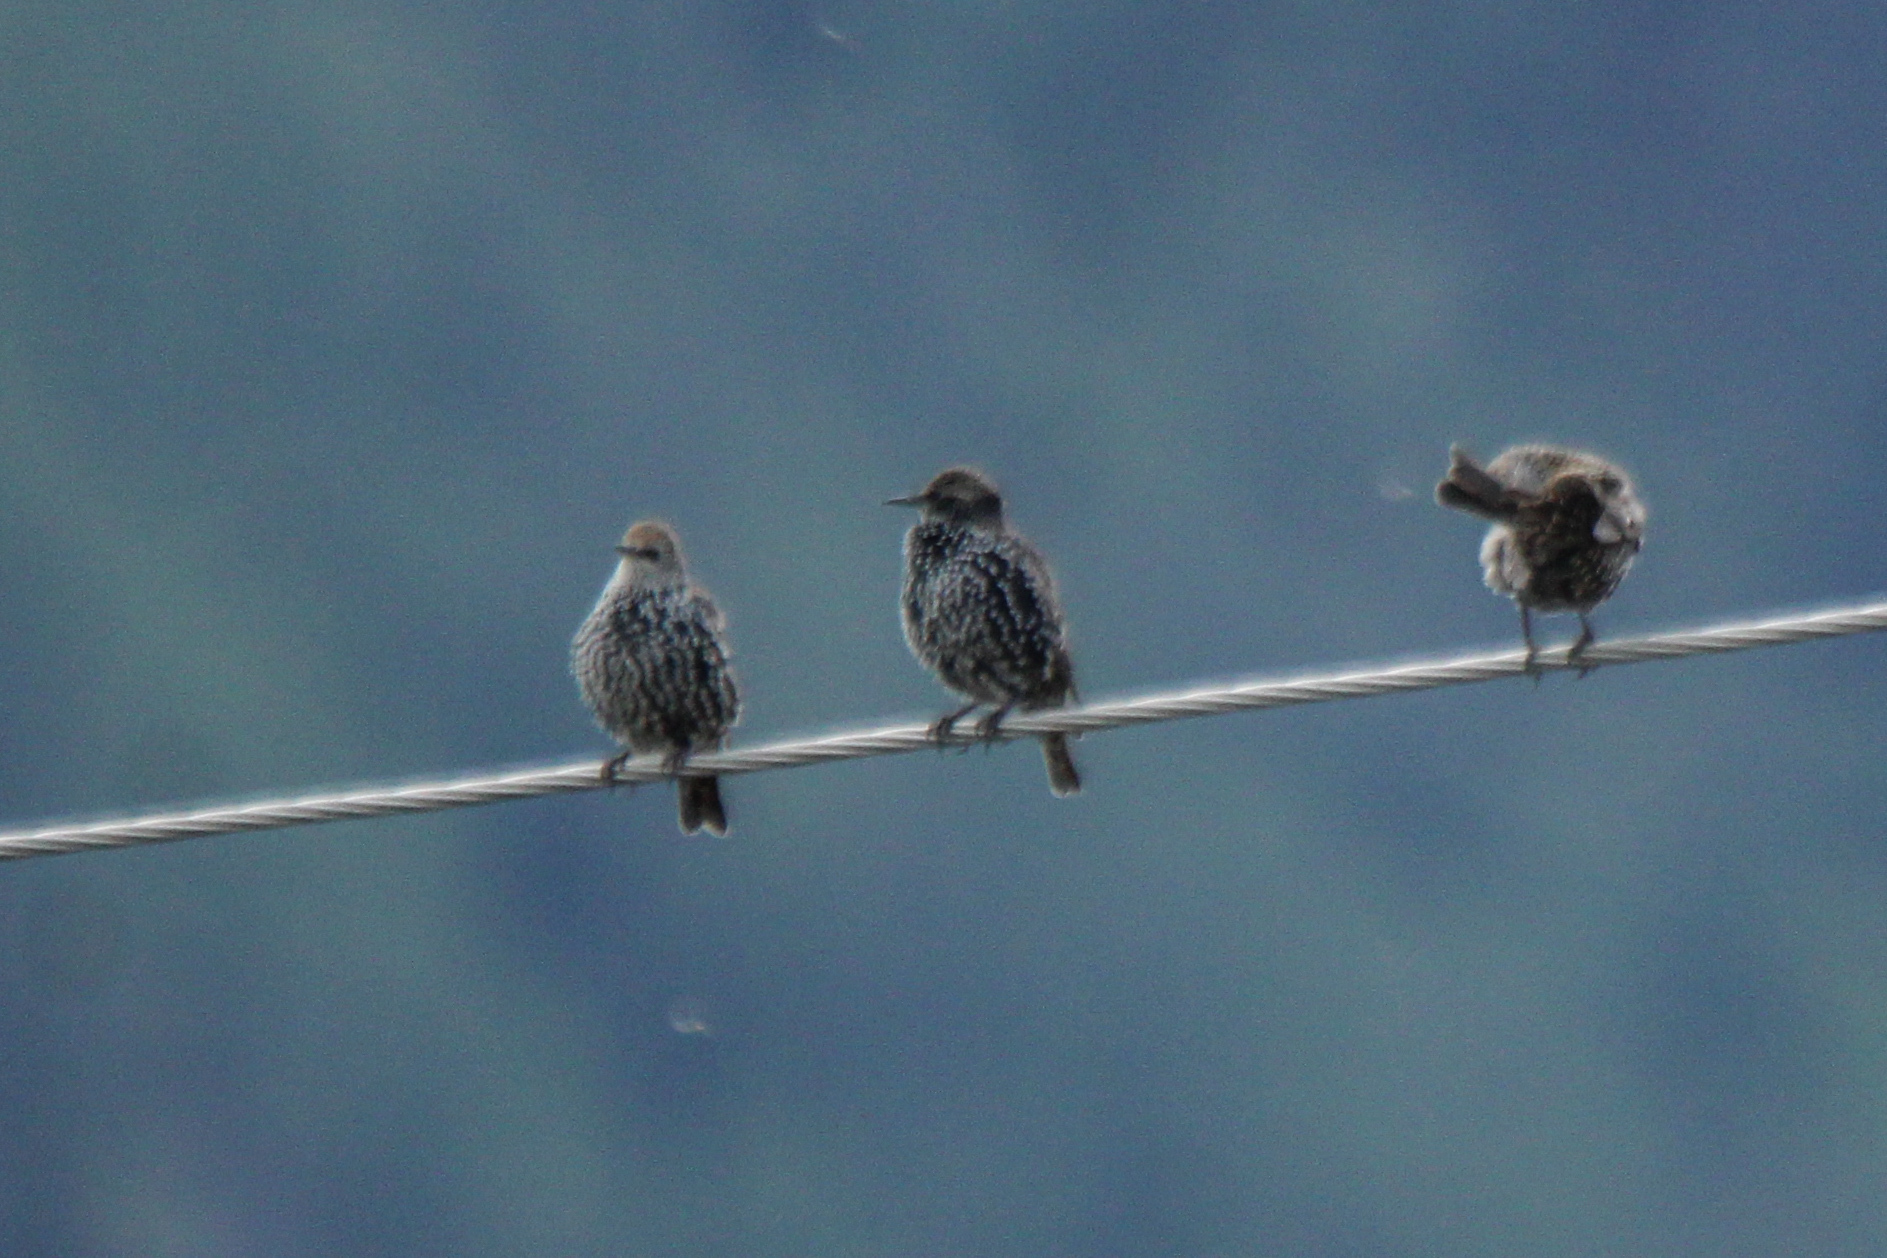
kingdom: Animalia
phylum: Chordata
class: Aves
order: Passeriformes
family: Sturnidae
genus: Sturnus
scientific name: Sturnus vulgaris
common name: Common starling
